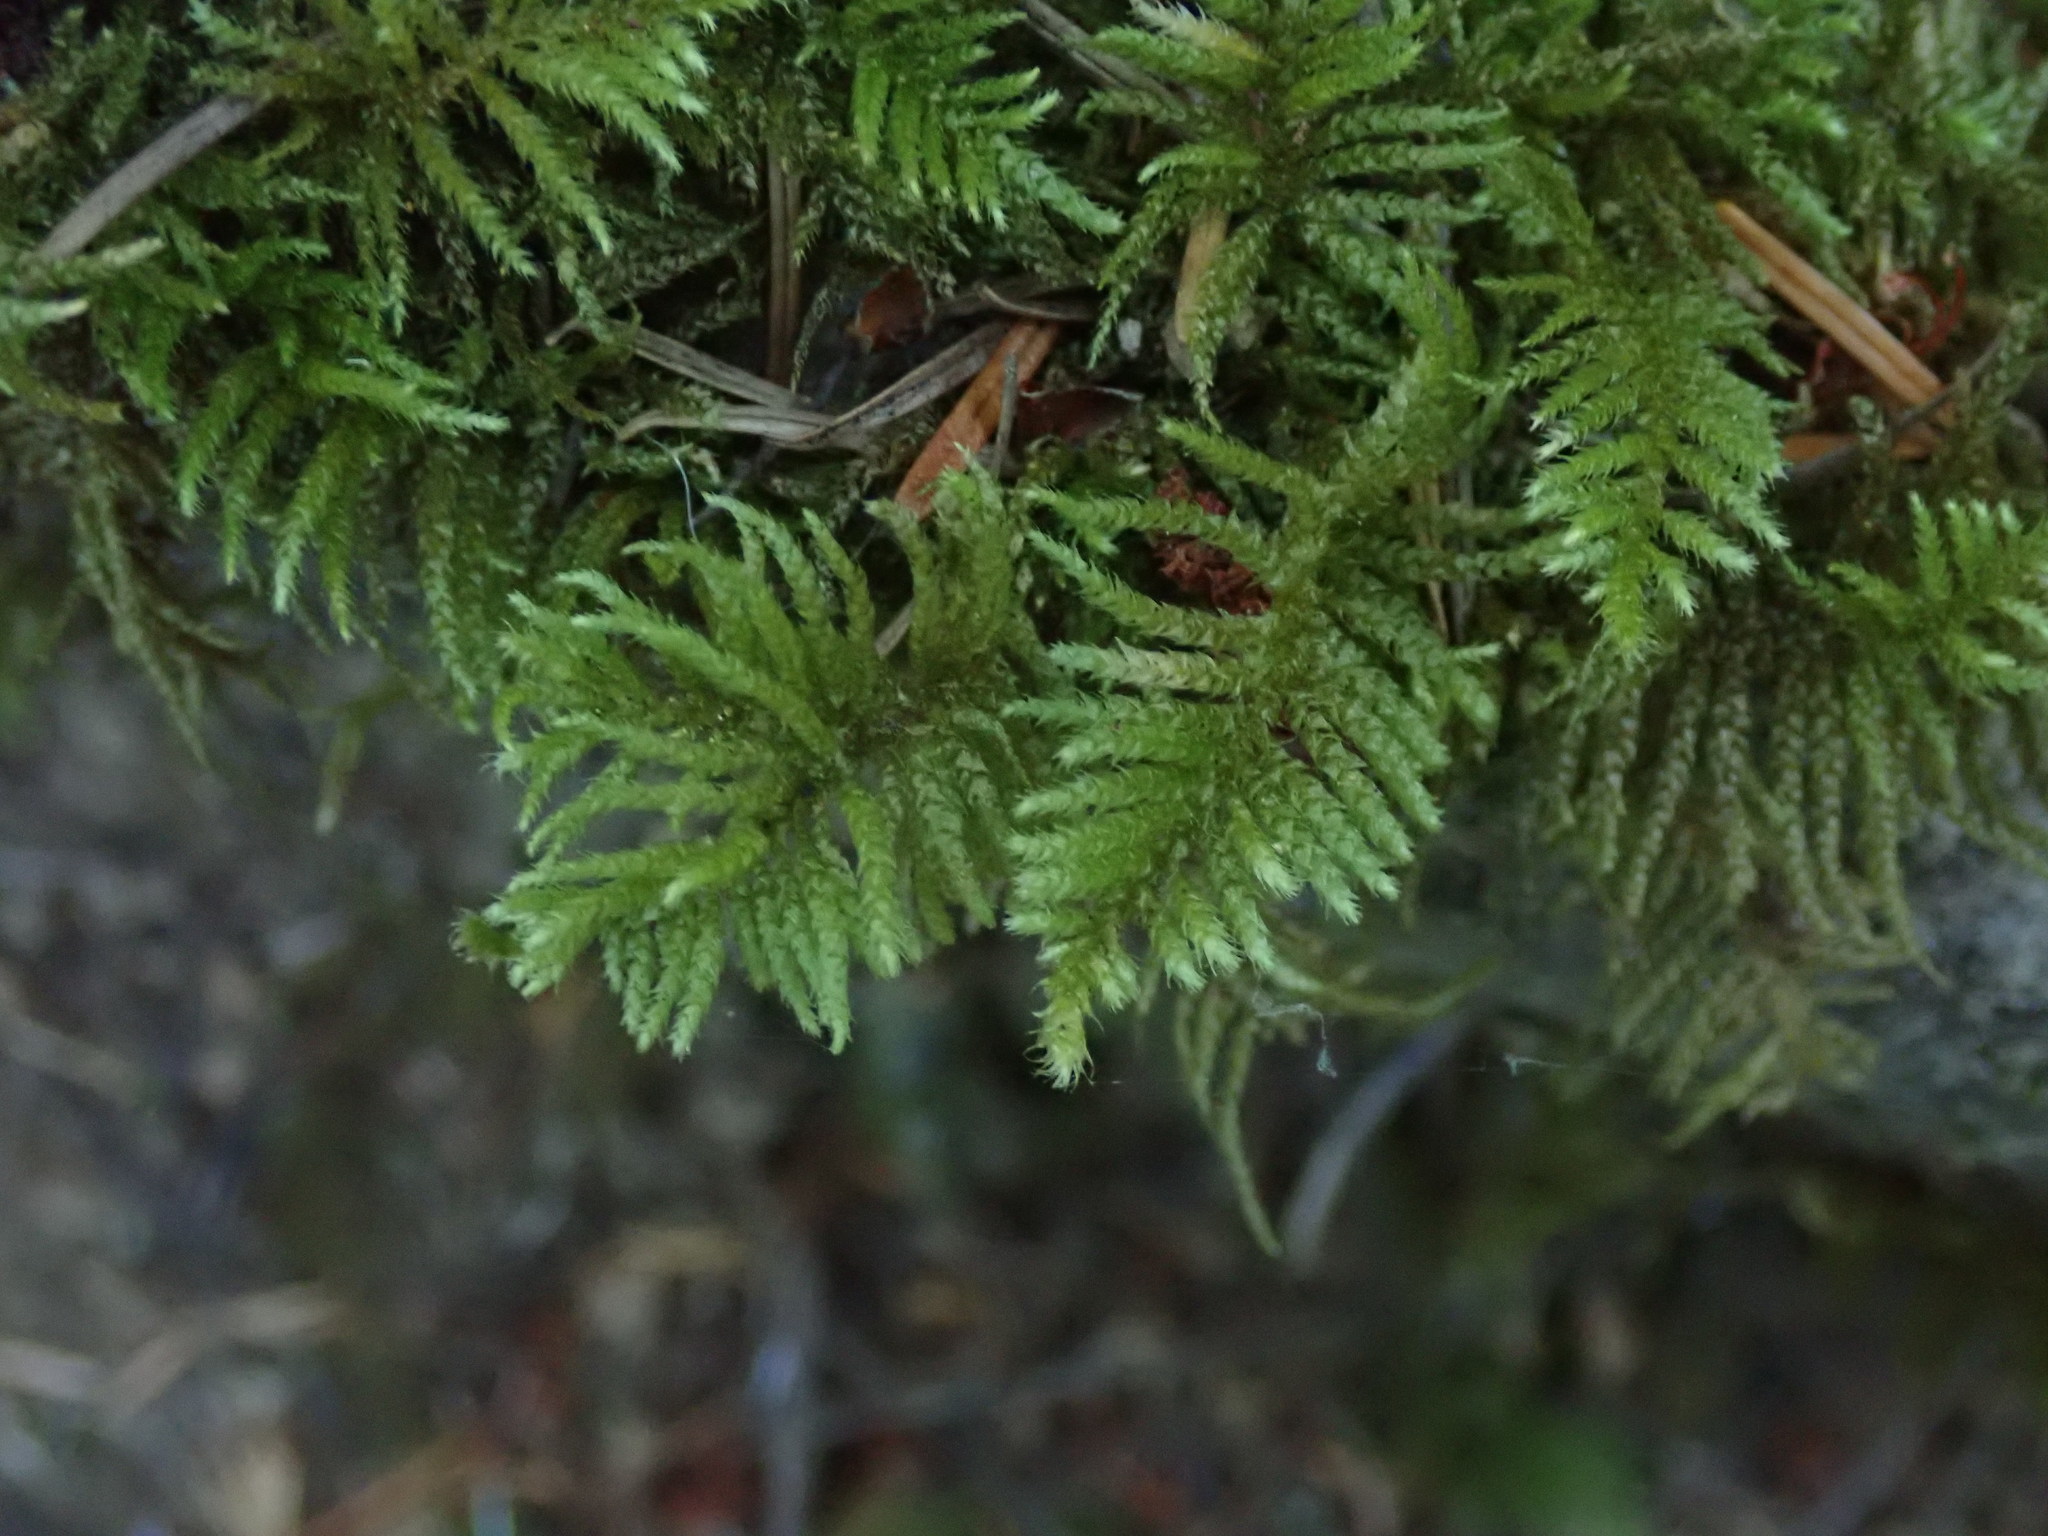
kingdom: Plantae
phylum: Bryophyta
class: Bryopsida
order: Hypnales
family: Brachytheciaceae
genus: Kindbergia
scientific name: Kindbergia oregana
